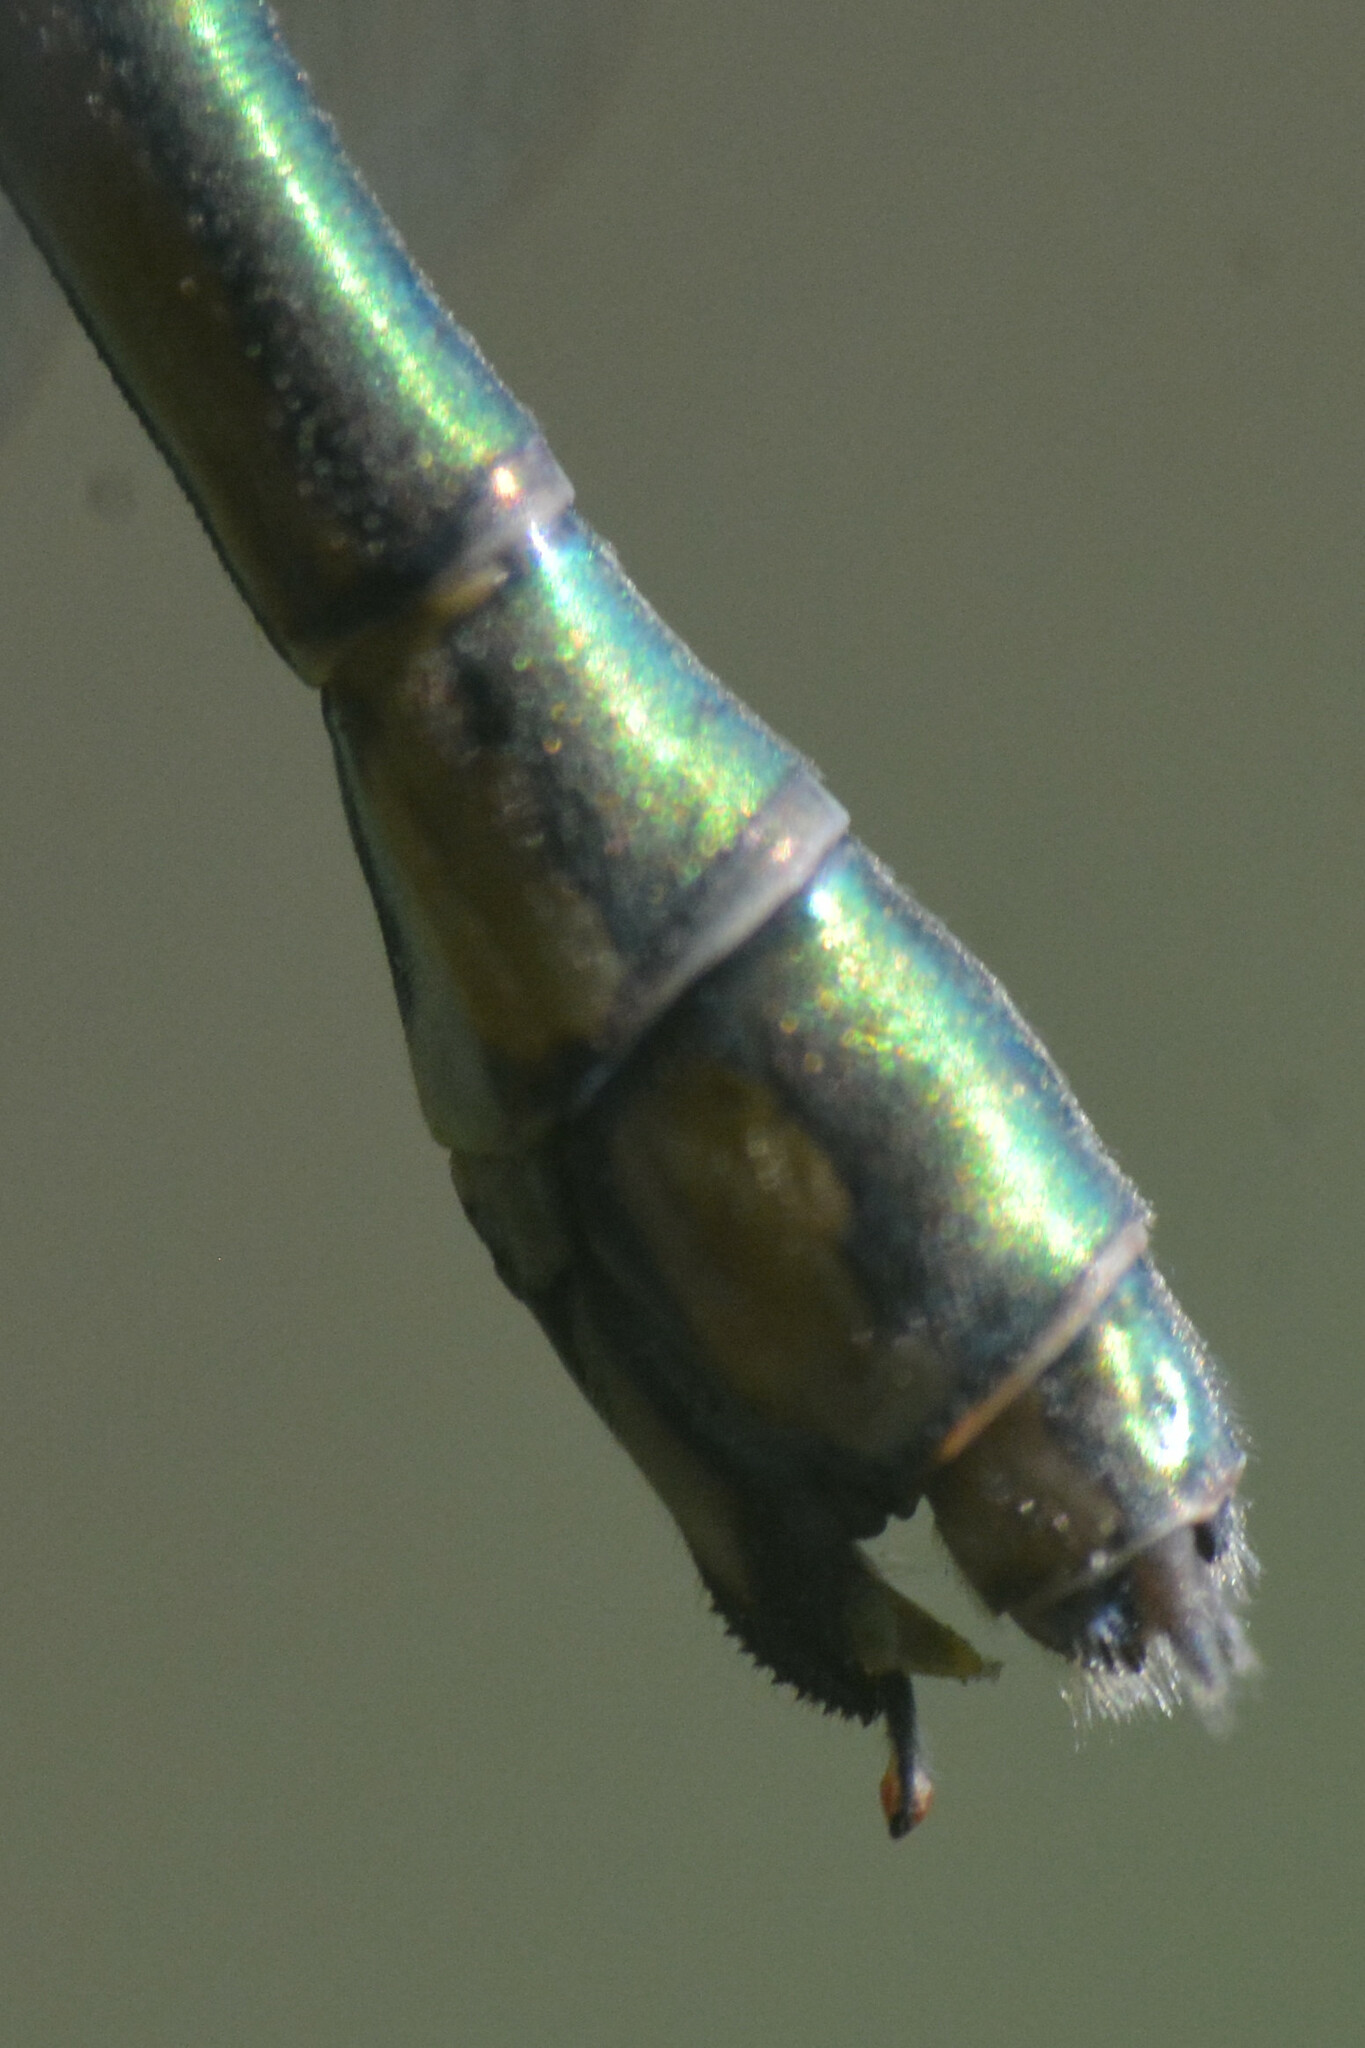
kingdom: Animalia
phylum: Arthropoda
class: Insecta
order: Odonata
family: Lestidae
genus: Chalcolestes
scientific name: Chalcolestes viridis
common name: Green emerald damselfly
